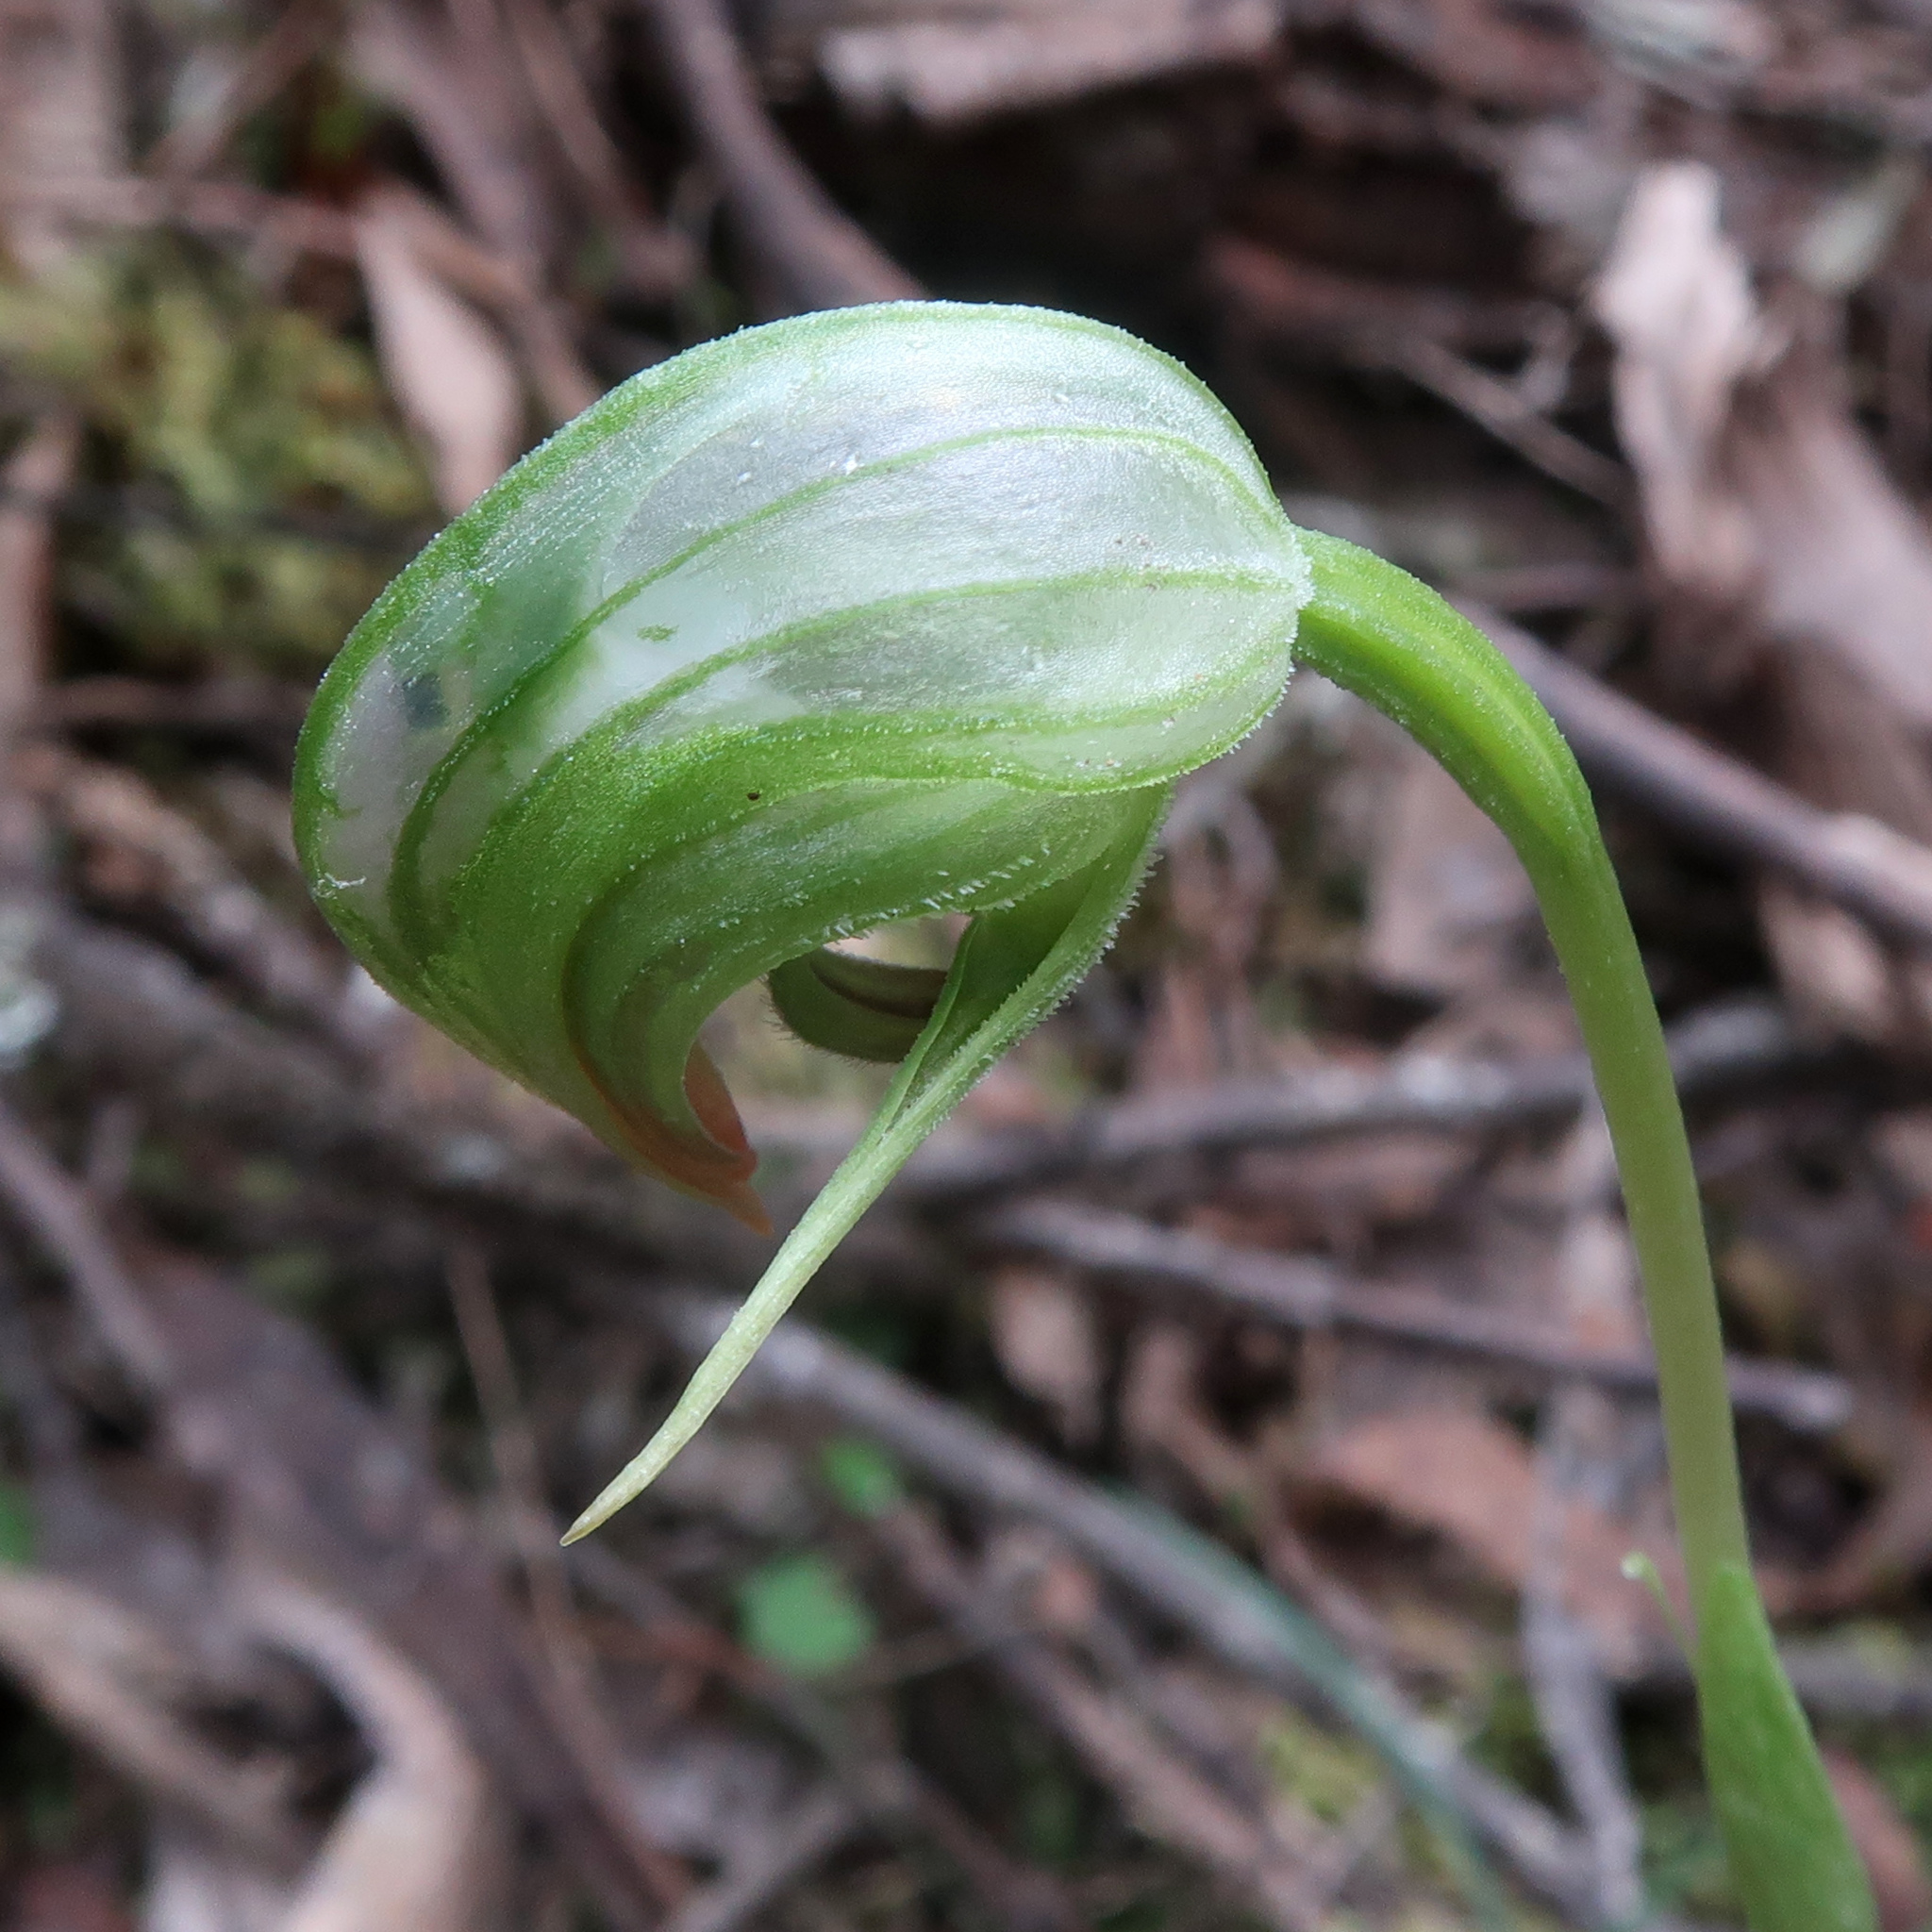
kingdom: Plantae
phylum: Tracheophyta
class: Liliopsida
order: Asparagales
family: Orchidaceae
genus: Pterostylis
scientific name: Pterostylis nutans
